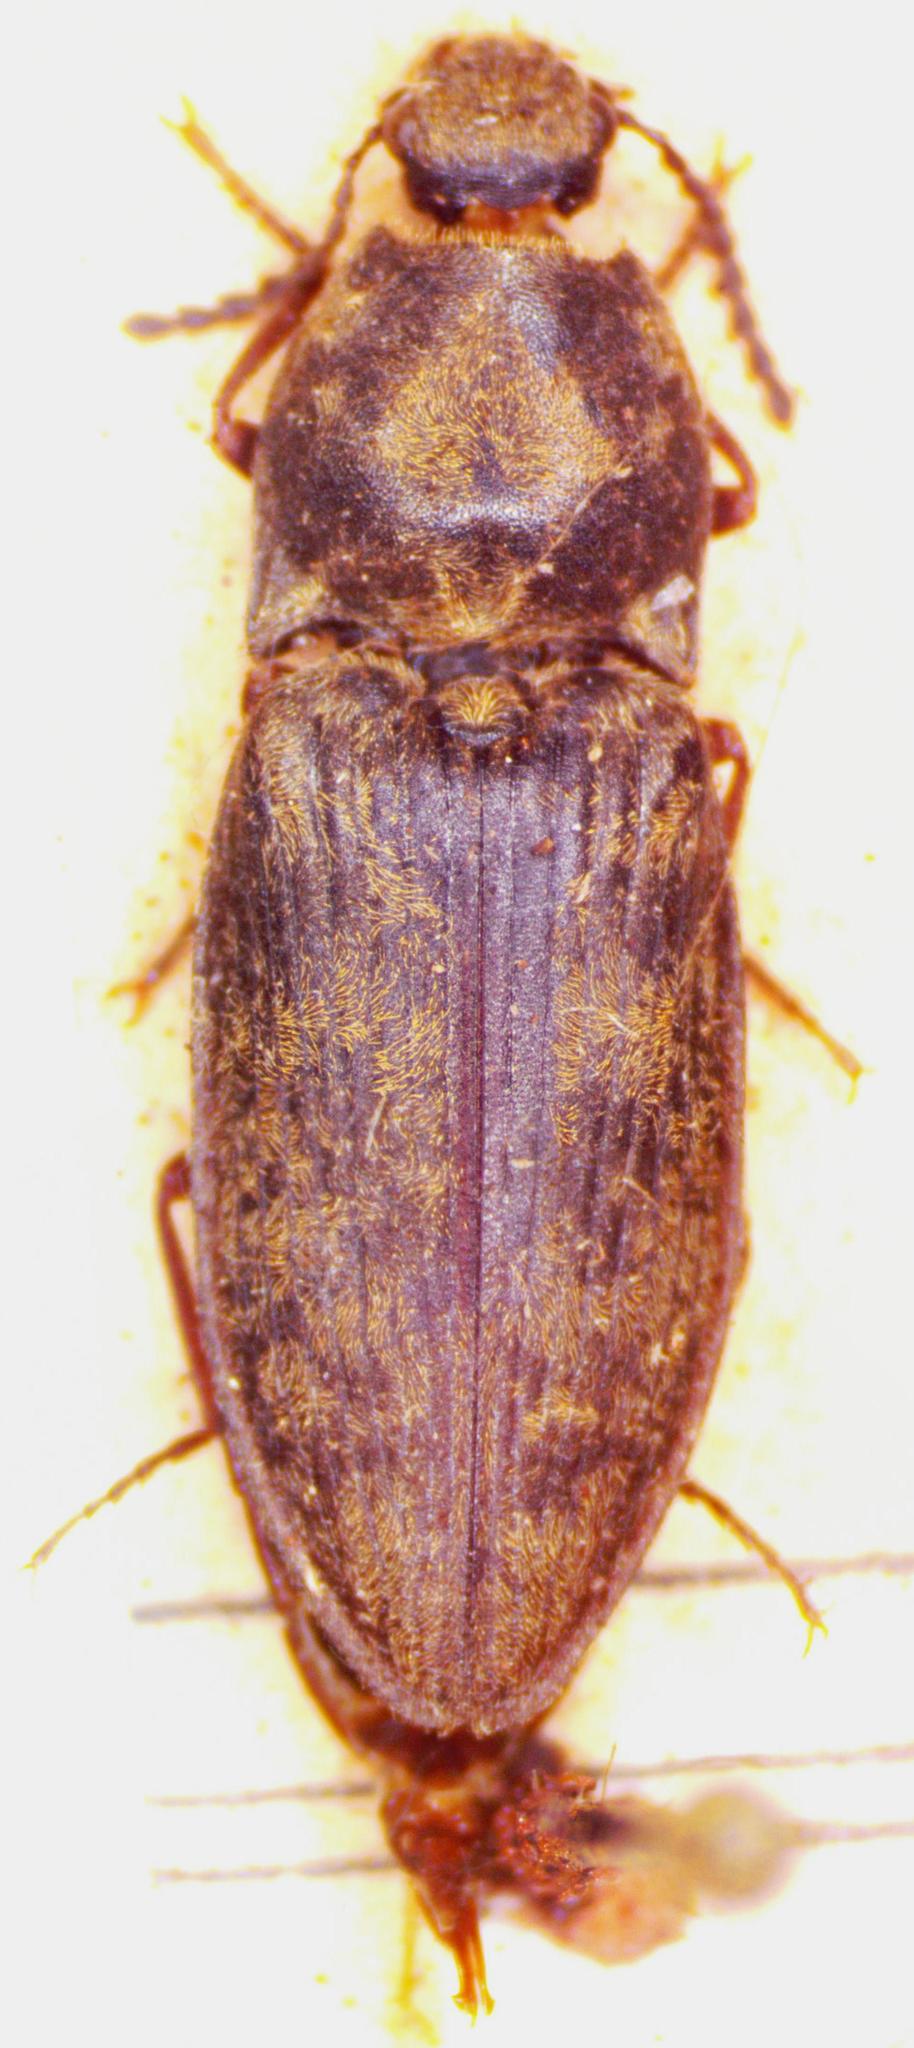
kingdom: Animalia
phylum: Arthropoda
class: Insecta
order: Coleoptera
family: Elateridae
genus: Prosternon
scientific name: Prosternon tessellatum
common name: Chequered click beetle
